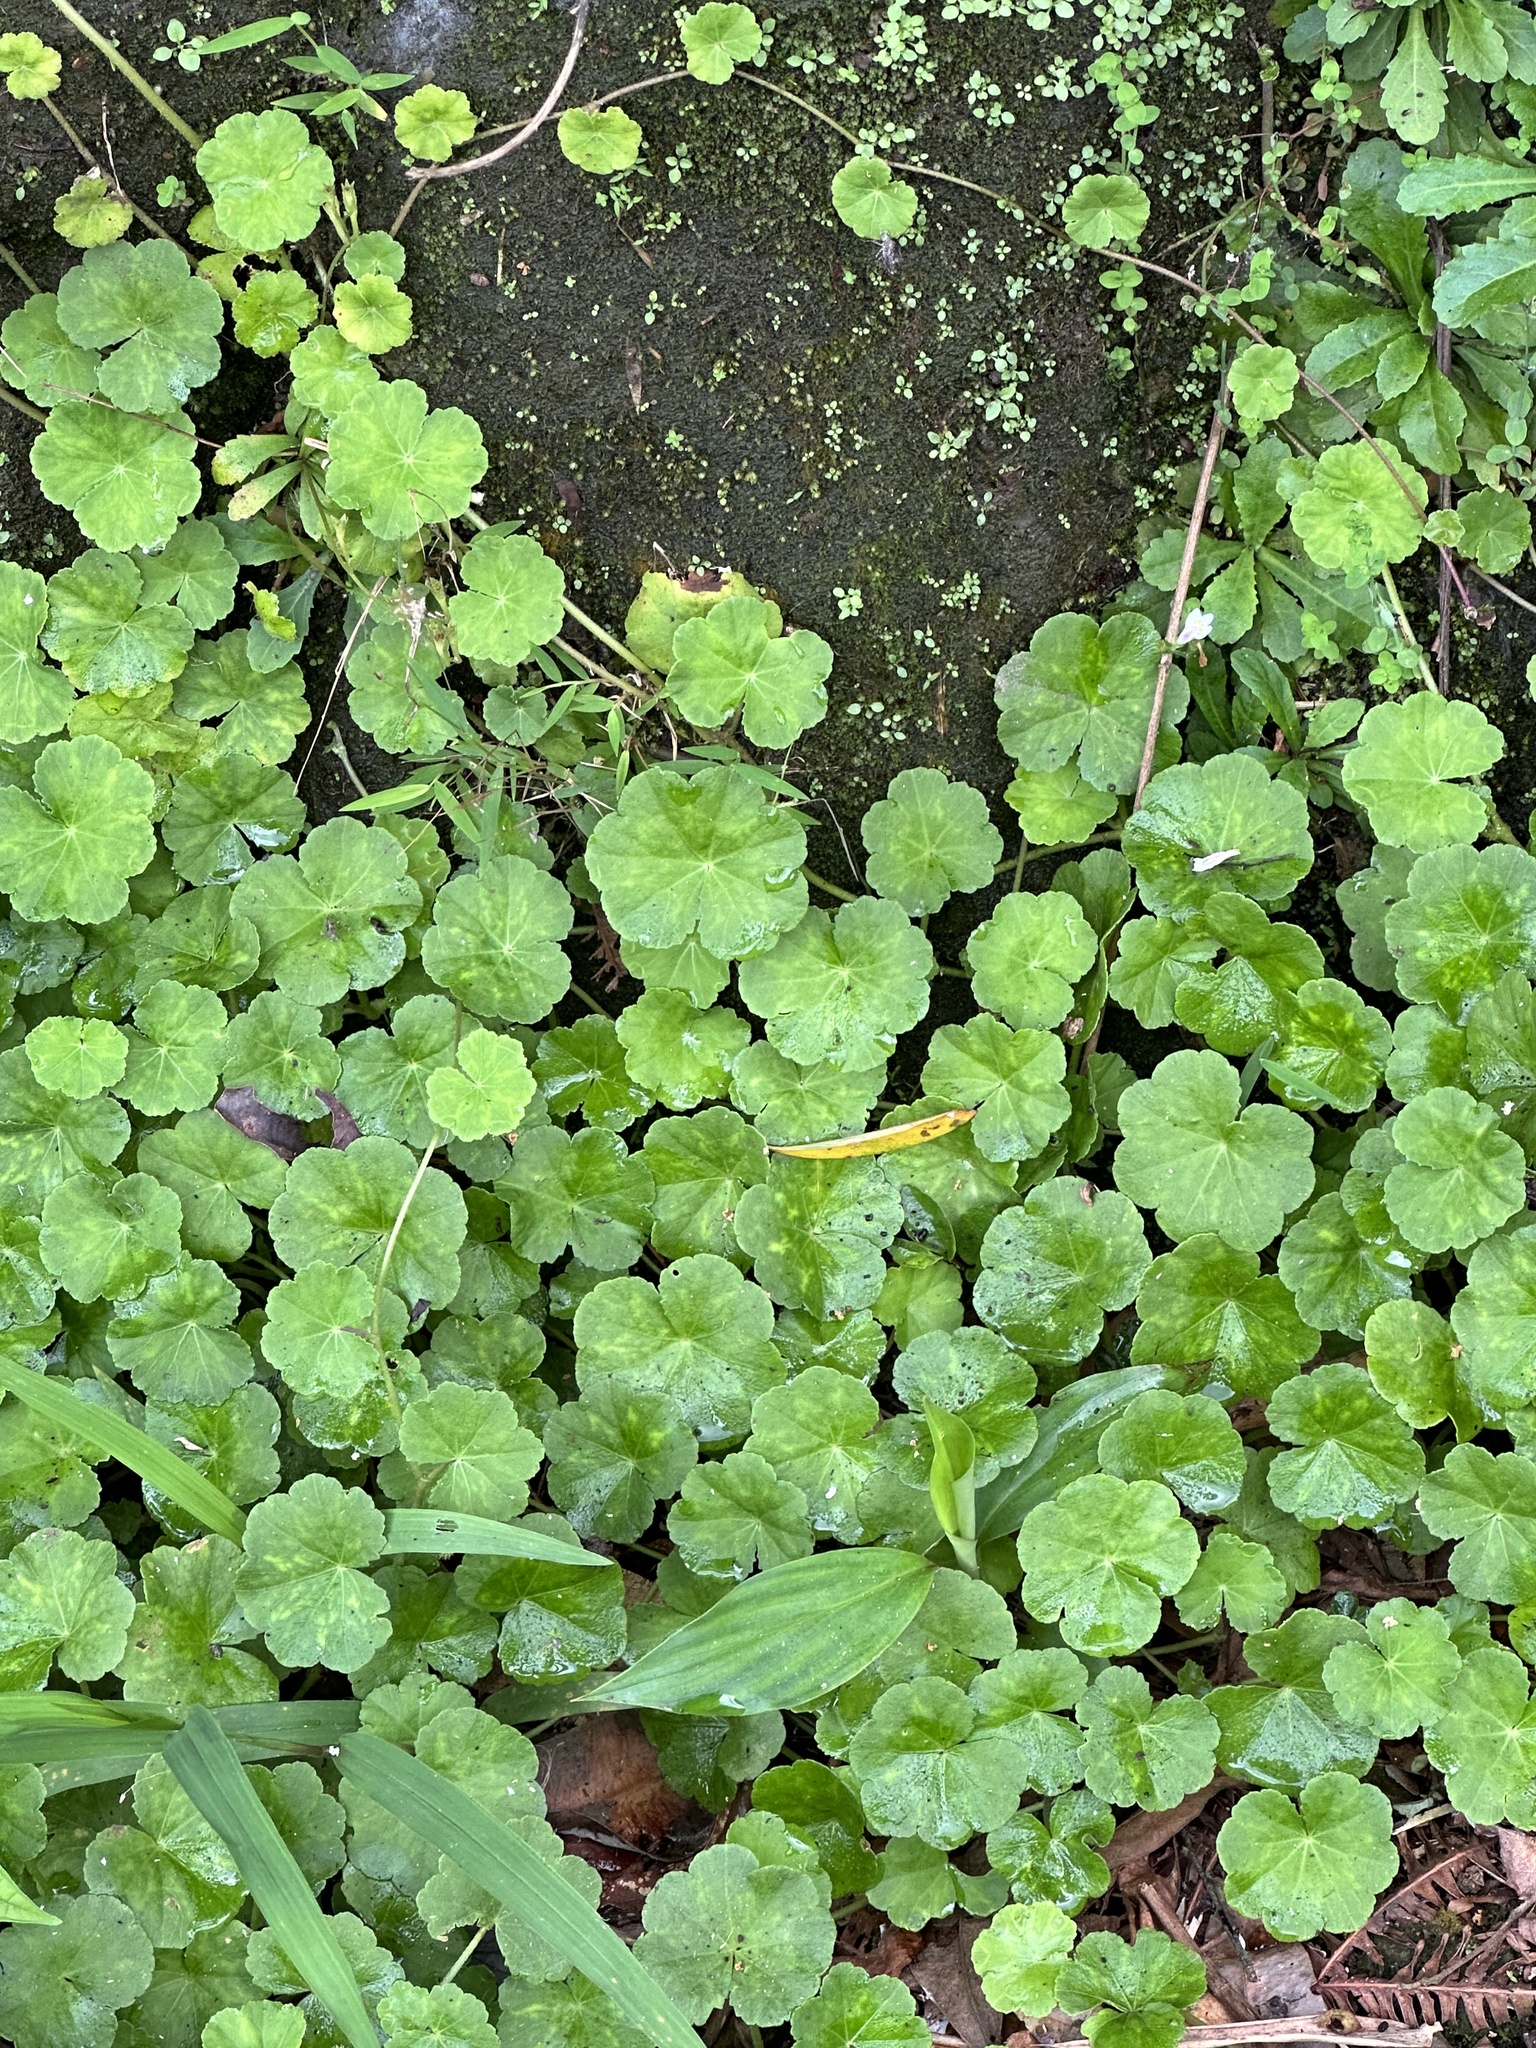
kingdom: Plantae
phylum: Tracheophyta
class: Magnoliopsida
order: Apiales
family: Araliaceae
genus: Hydrocotyle
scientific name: Hydrocotyle nepalensis
